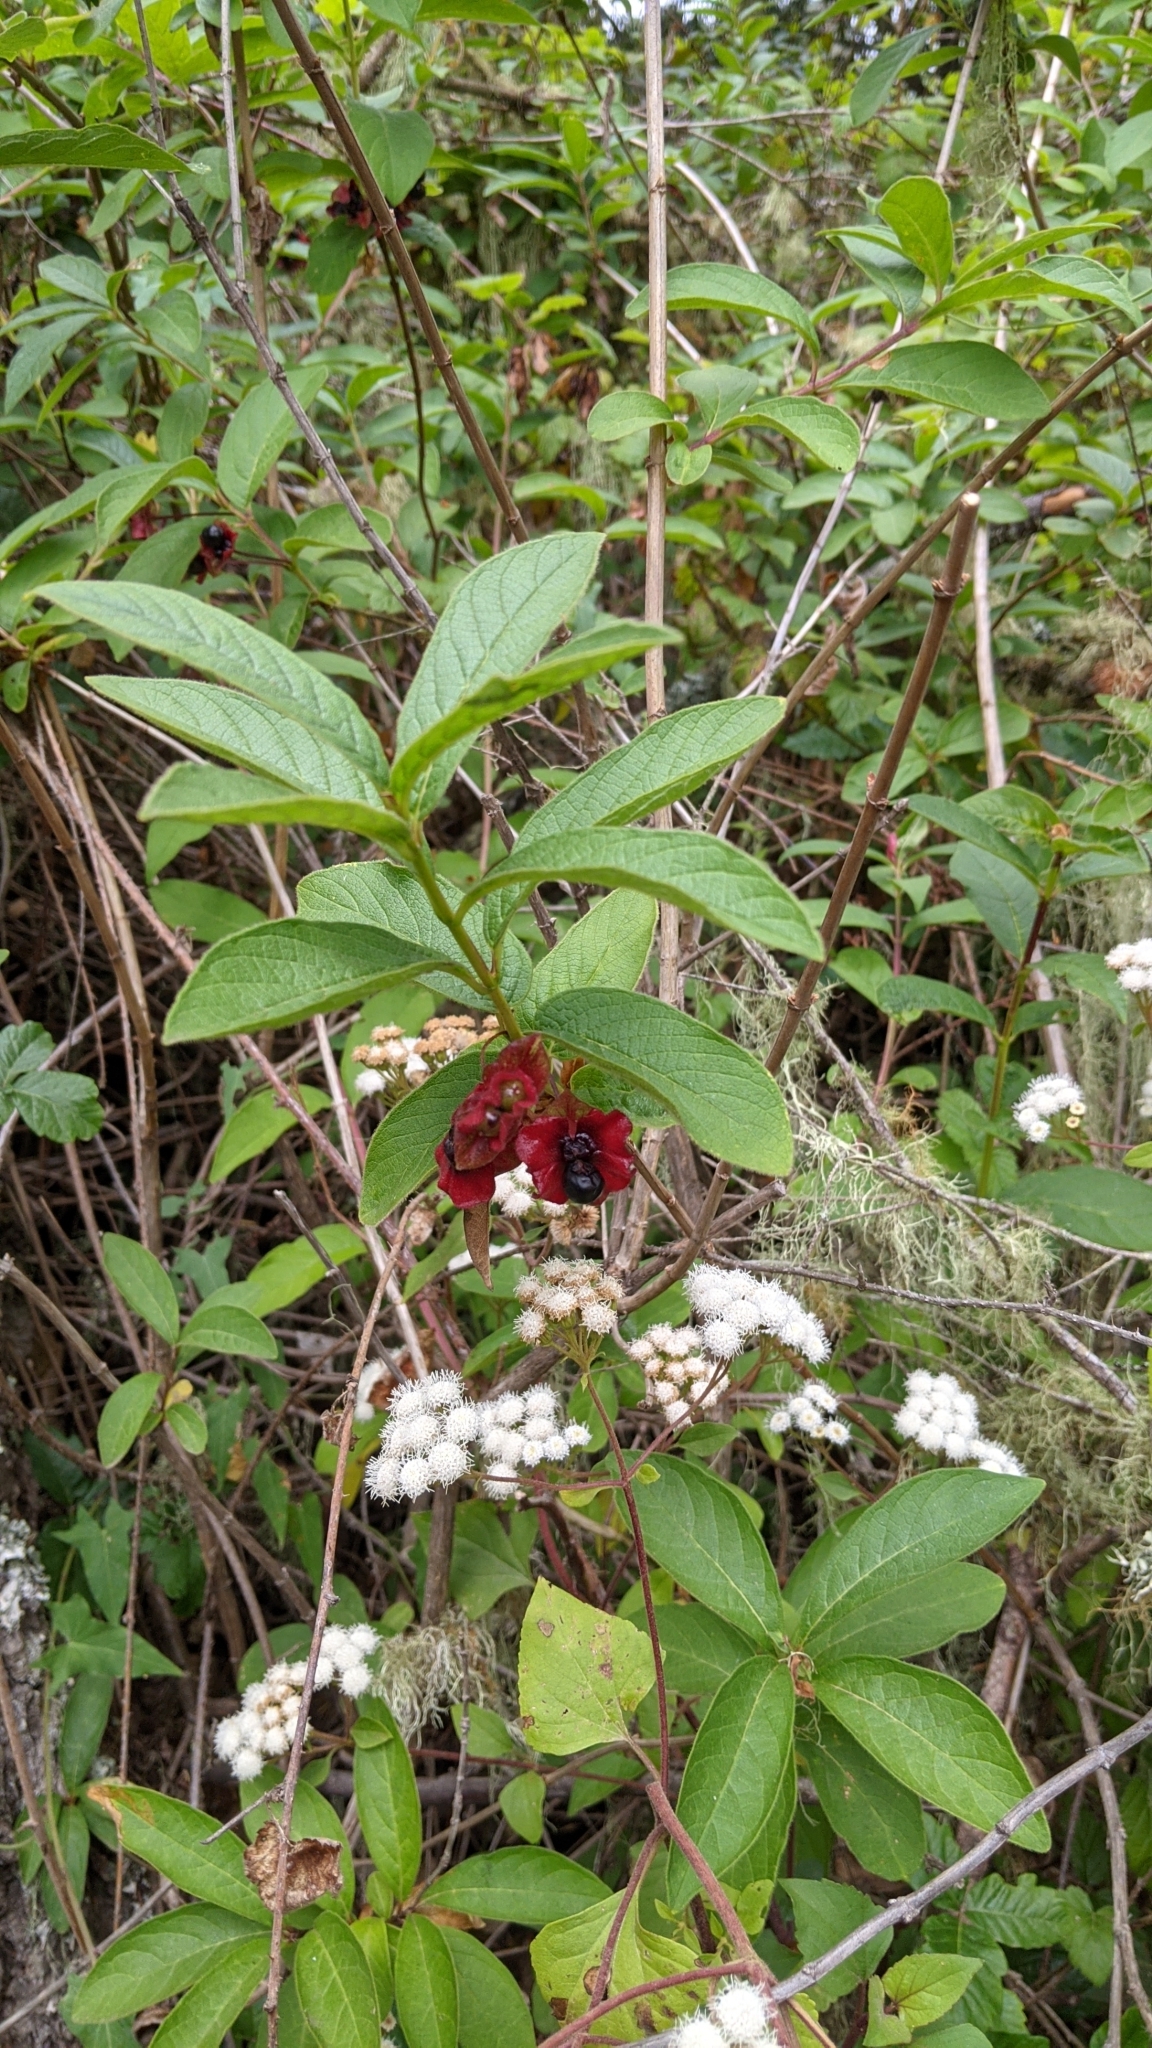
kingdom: Plantae
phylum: Tracheophyta
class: Magnoliopsida
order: Dipsacales
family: Caprifoliaceae
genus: Lonicera
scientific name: Lonicera involucrata
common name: Californian honeysuckle
